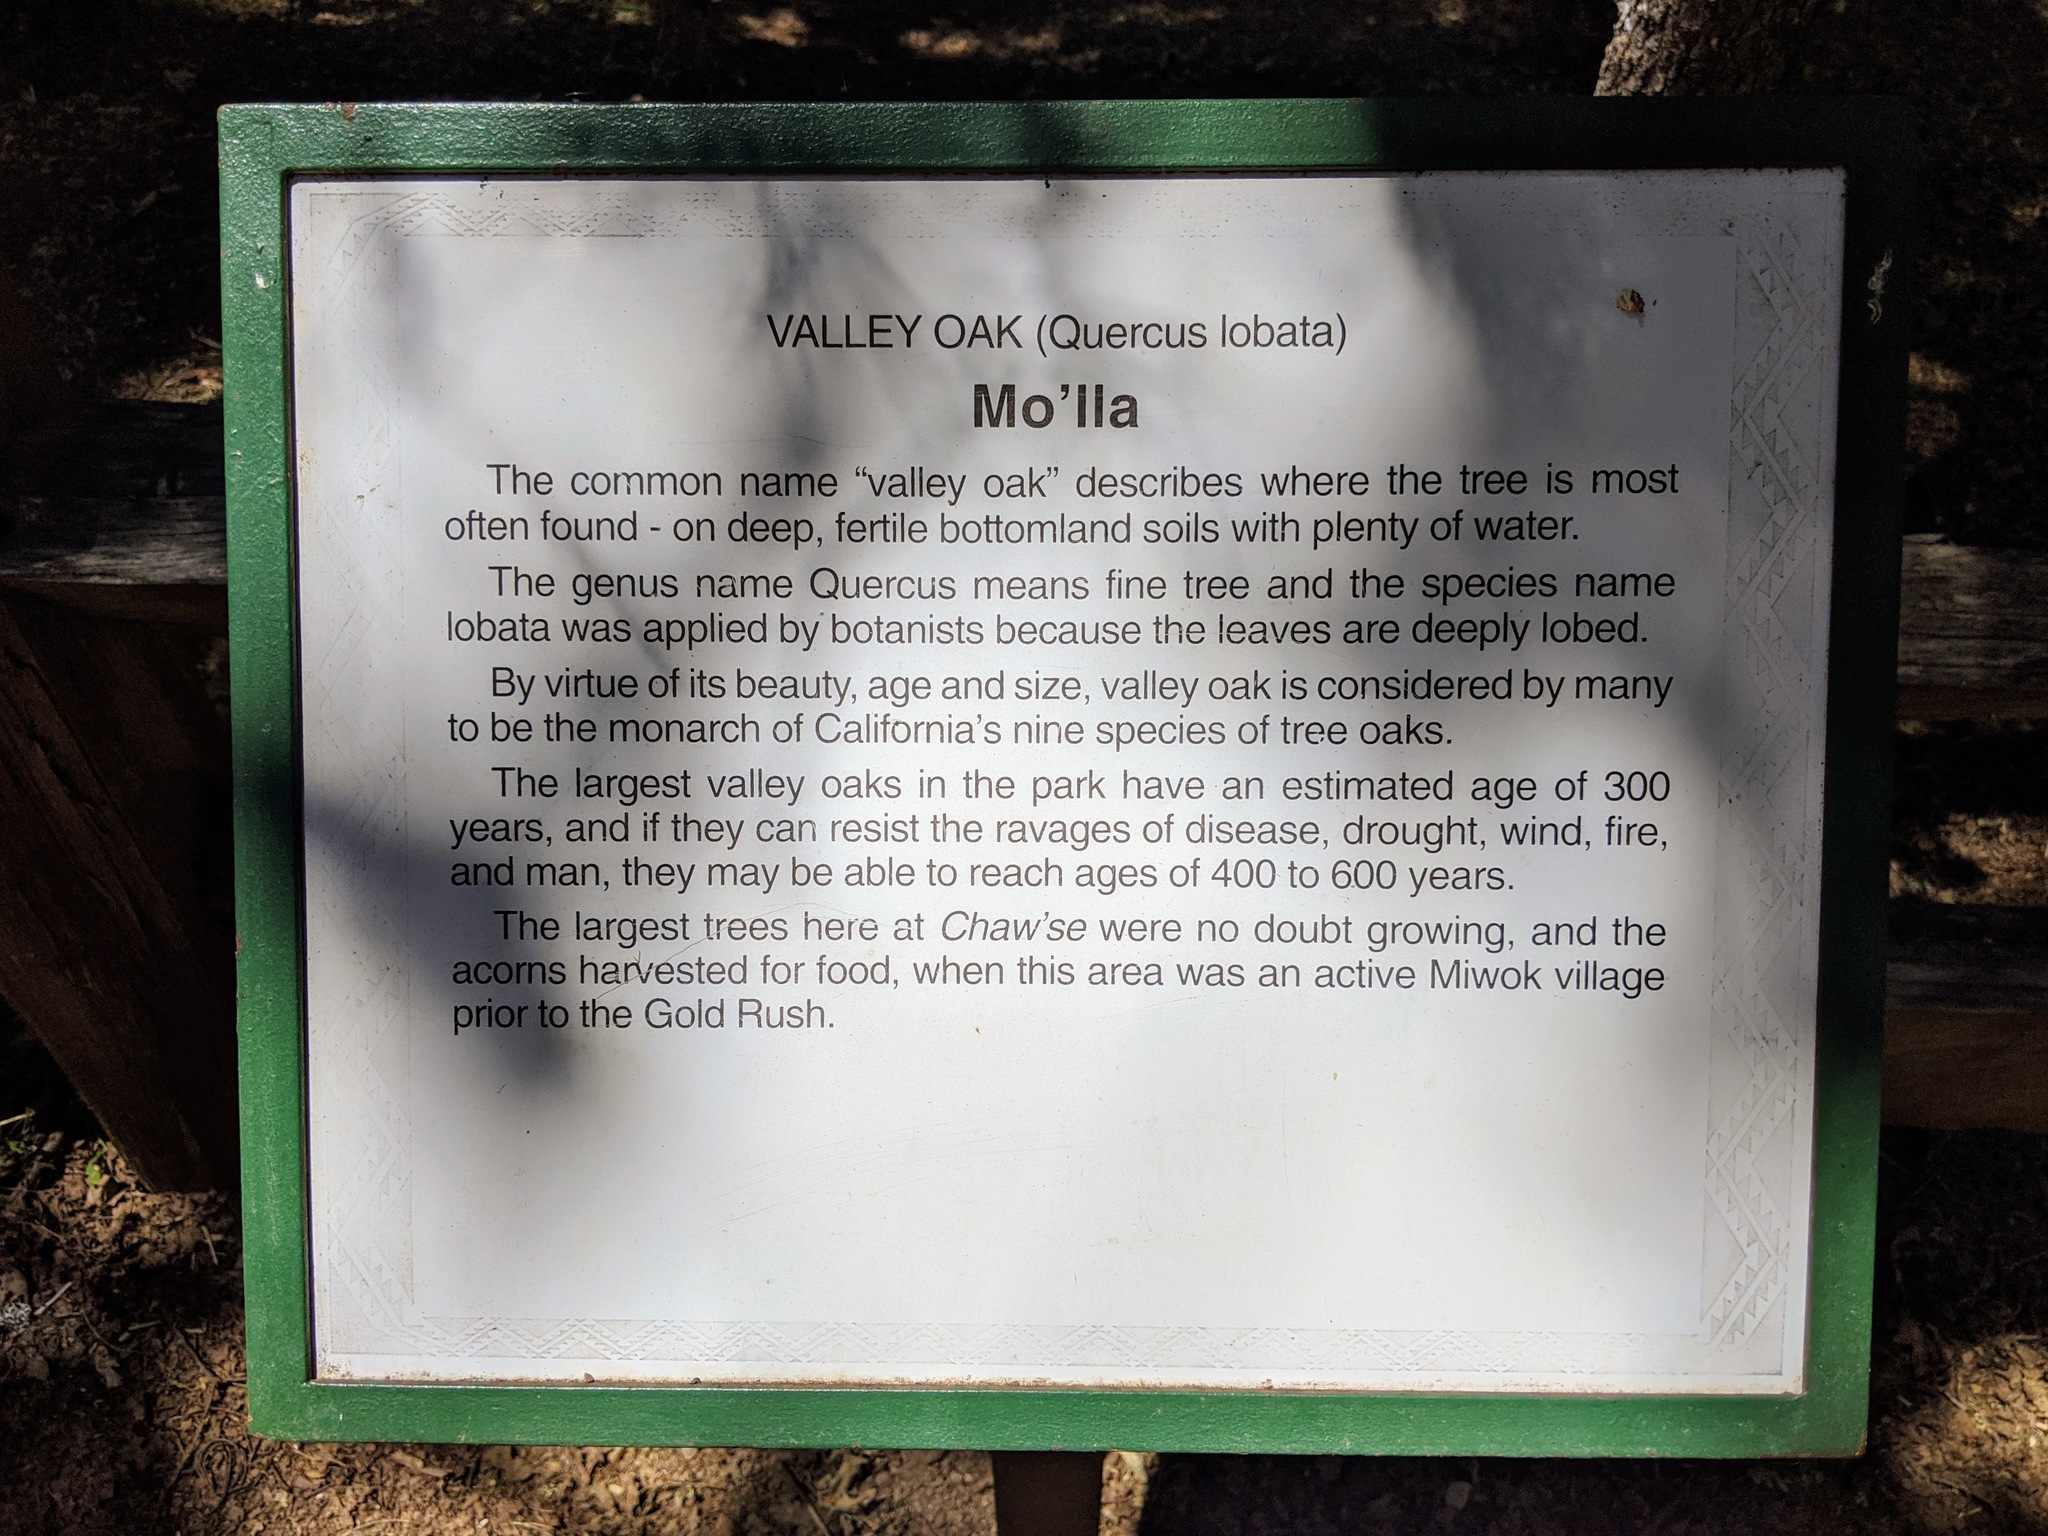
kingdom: Plantae
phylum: Tracheophyta
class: Magnoliopsida
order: Fagales
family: Fagaceae
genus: Quercus
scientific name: Quercus lobata
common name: Valley oak
